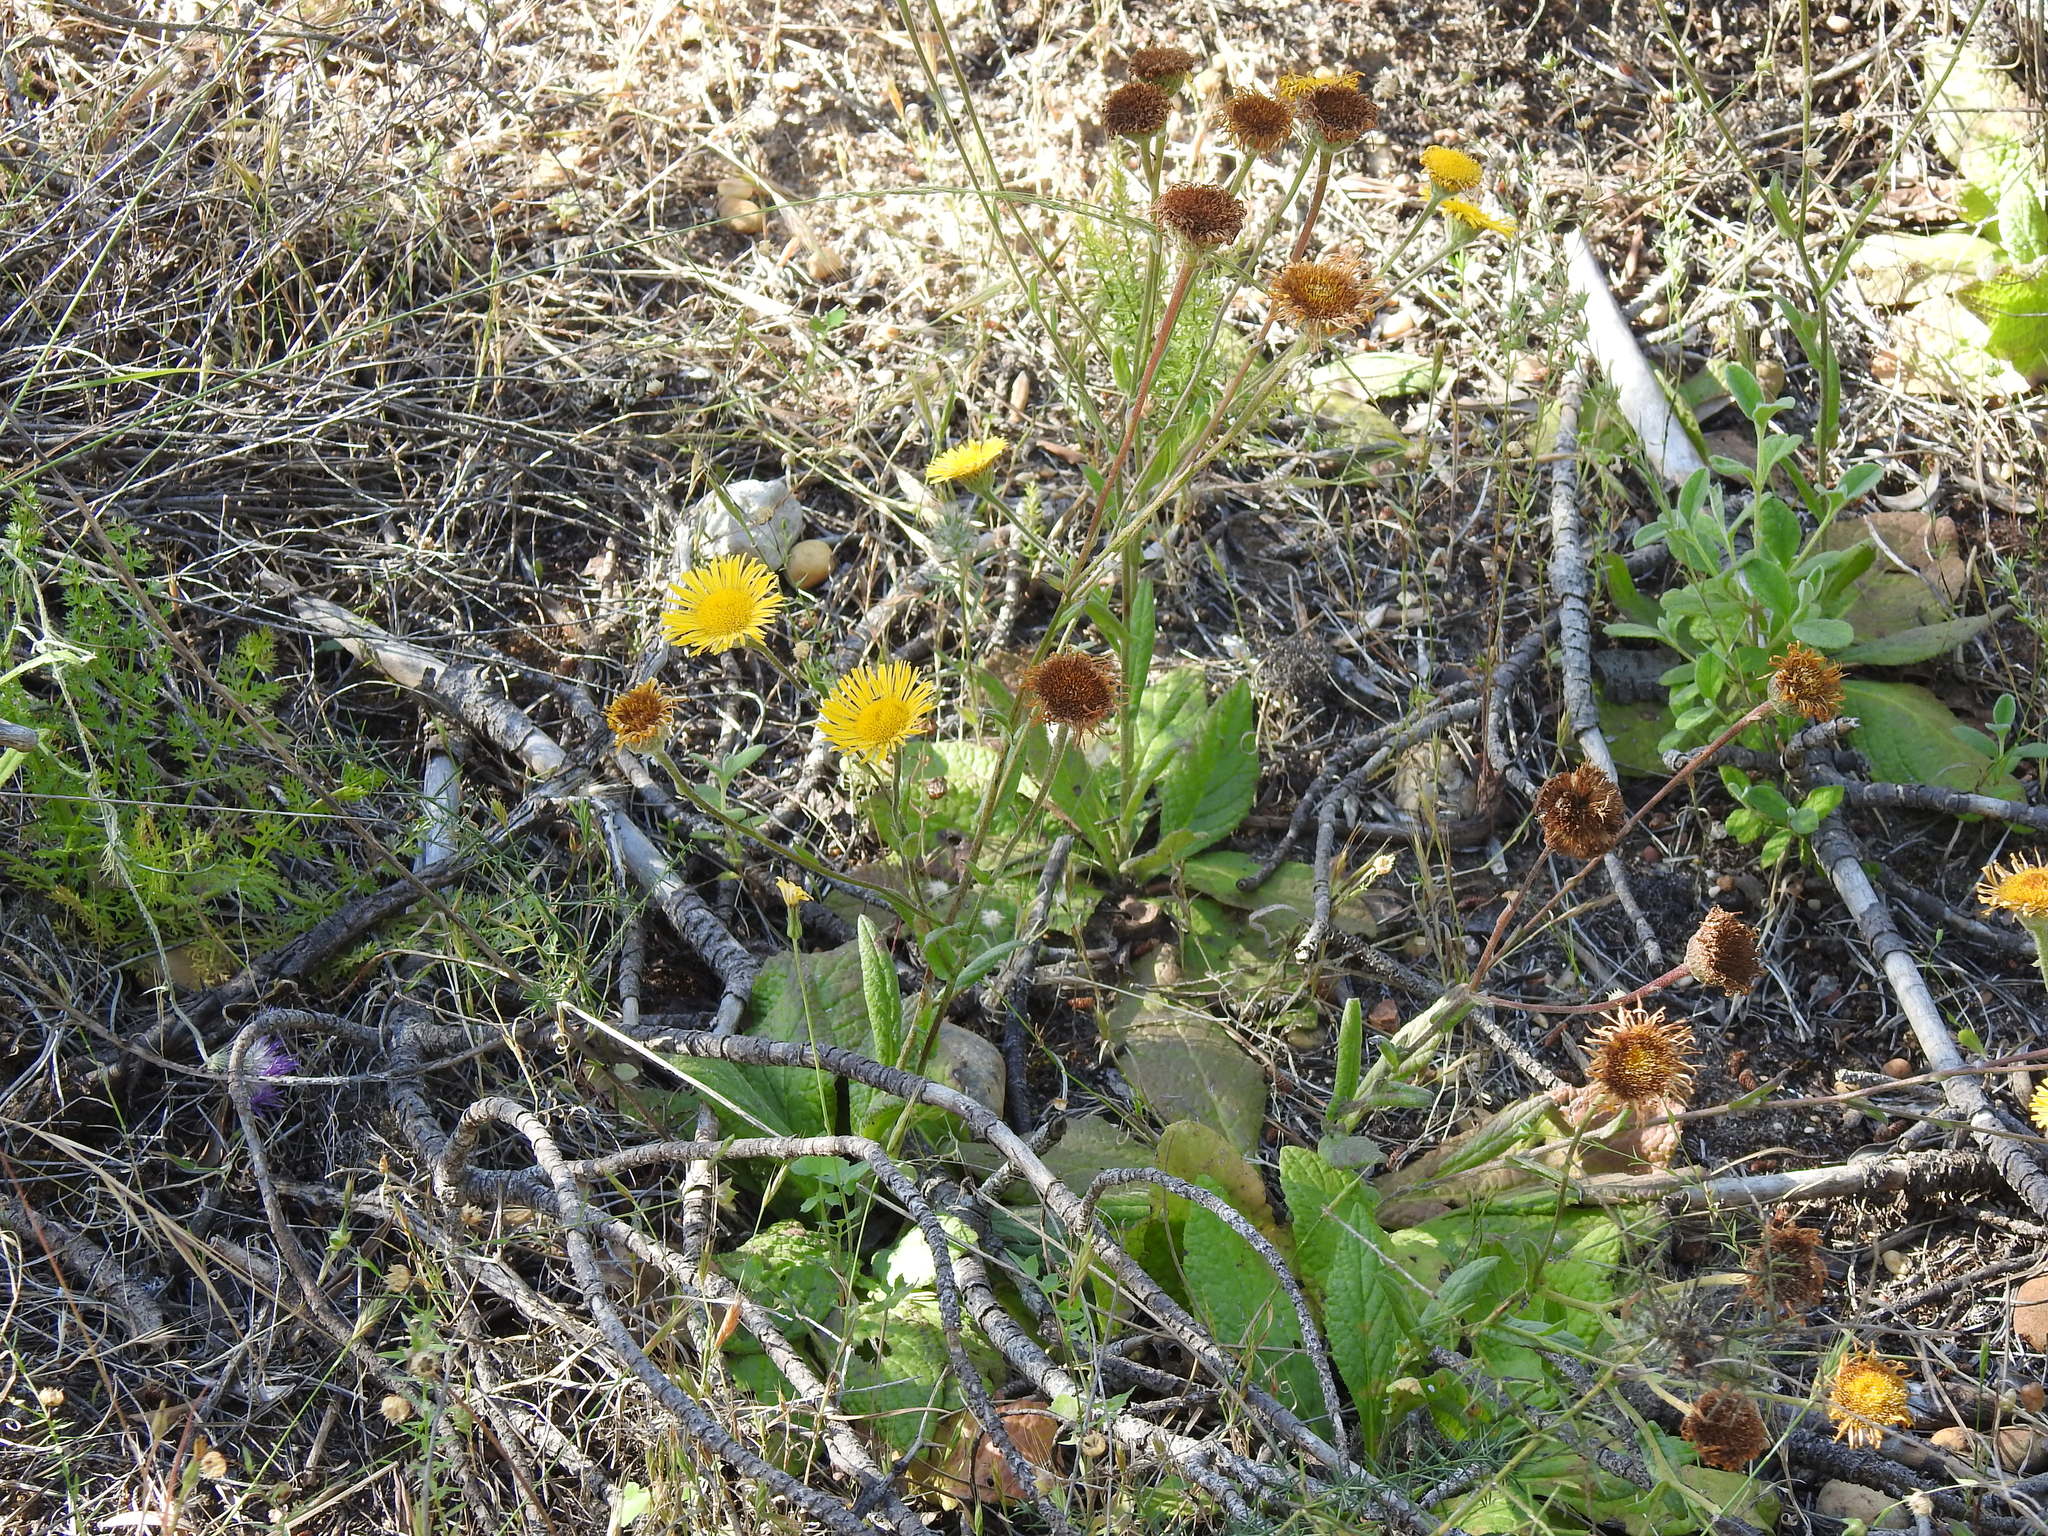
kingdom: Plantae
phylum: Tracheophyta
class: Magnoliopsida
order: Asterales
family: Asteraceae
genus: Pulicaria
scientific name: Pulicaria odora
